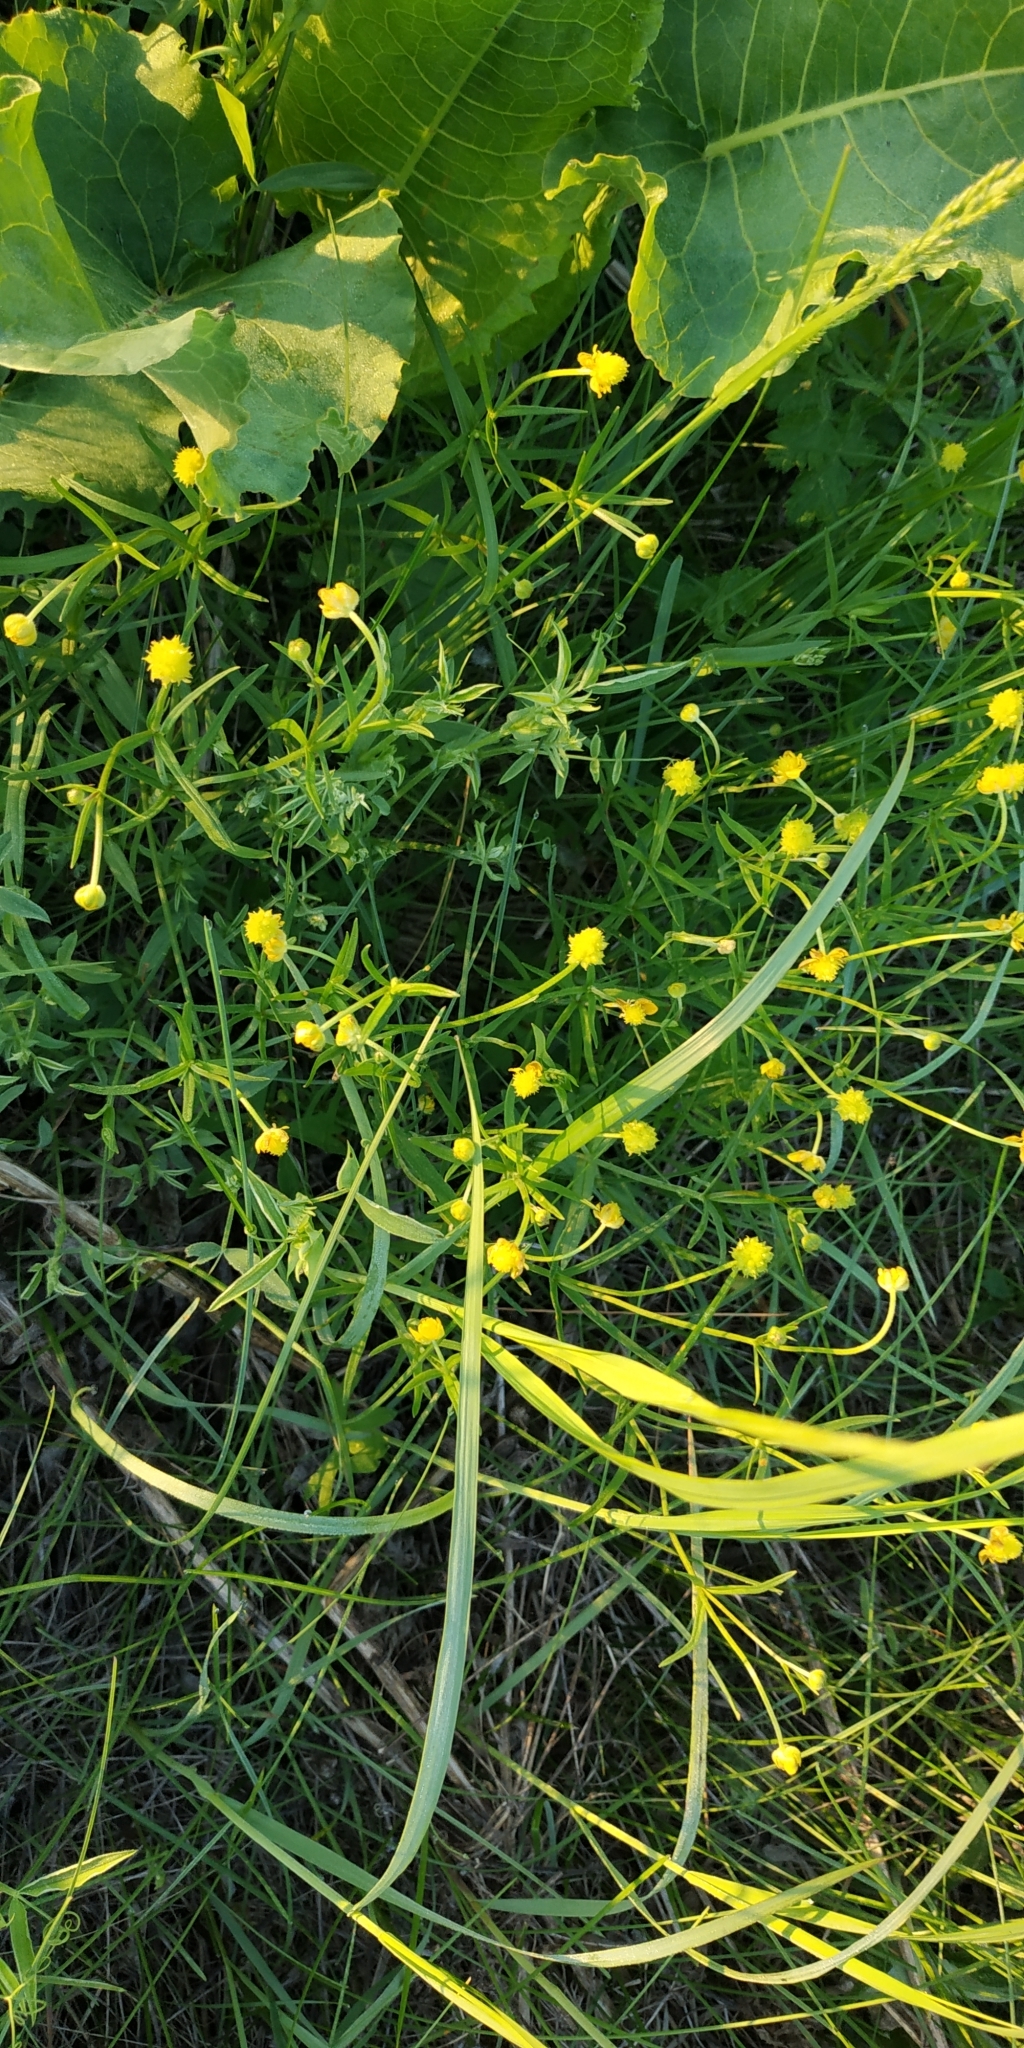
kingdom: Plantae
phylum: Tracheophyta
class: Magnoliopsida
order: Ranunculales
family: Ranunculaceae
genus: Ranunculus
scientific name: Ranunculus auricomus
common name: Goldilocks buttercup
